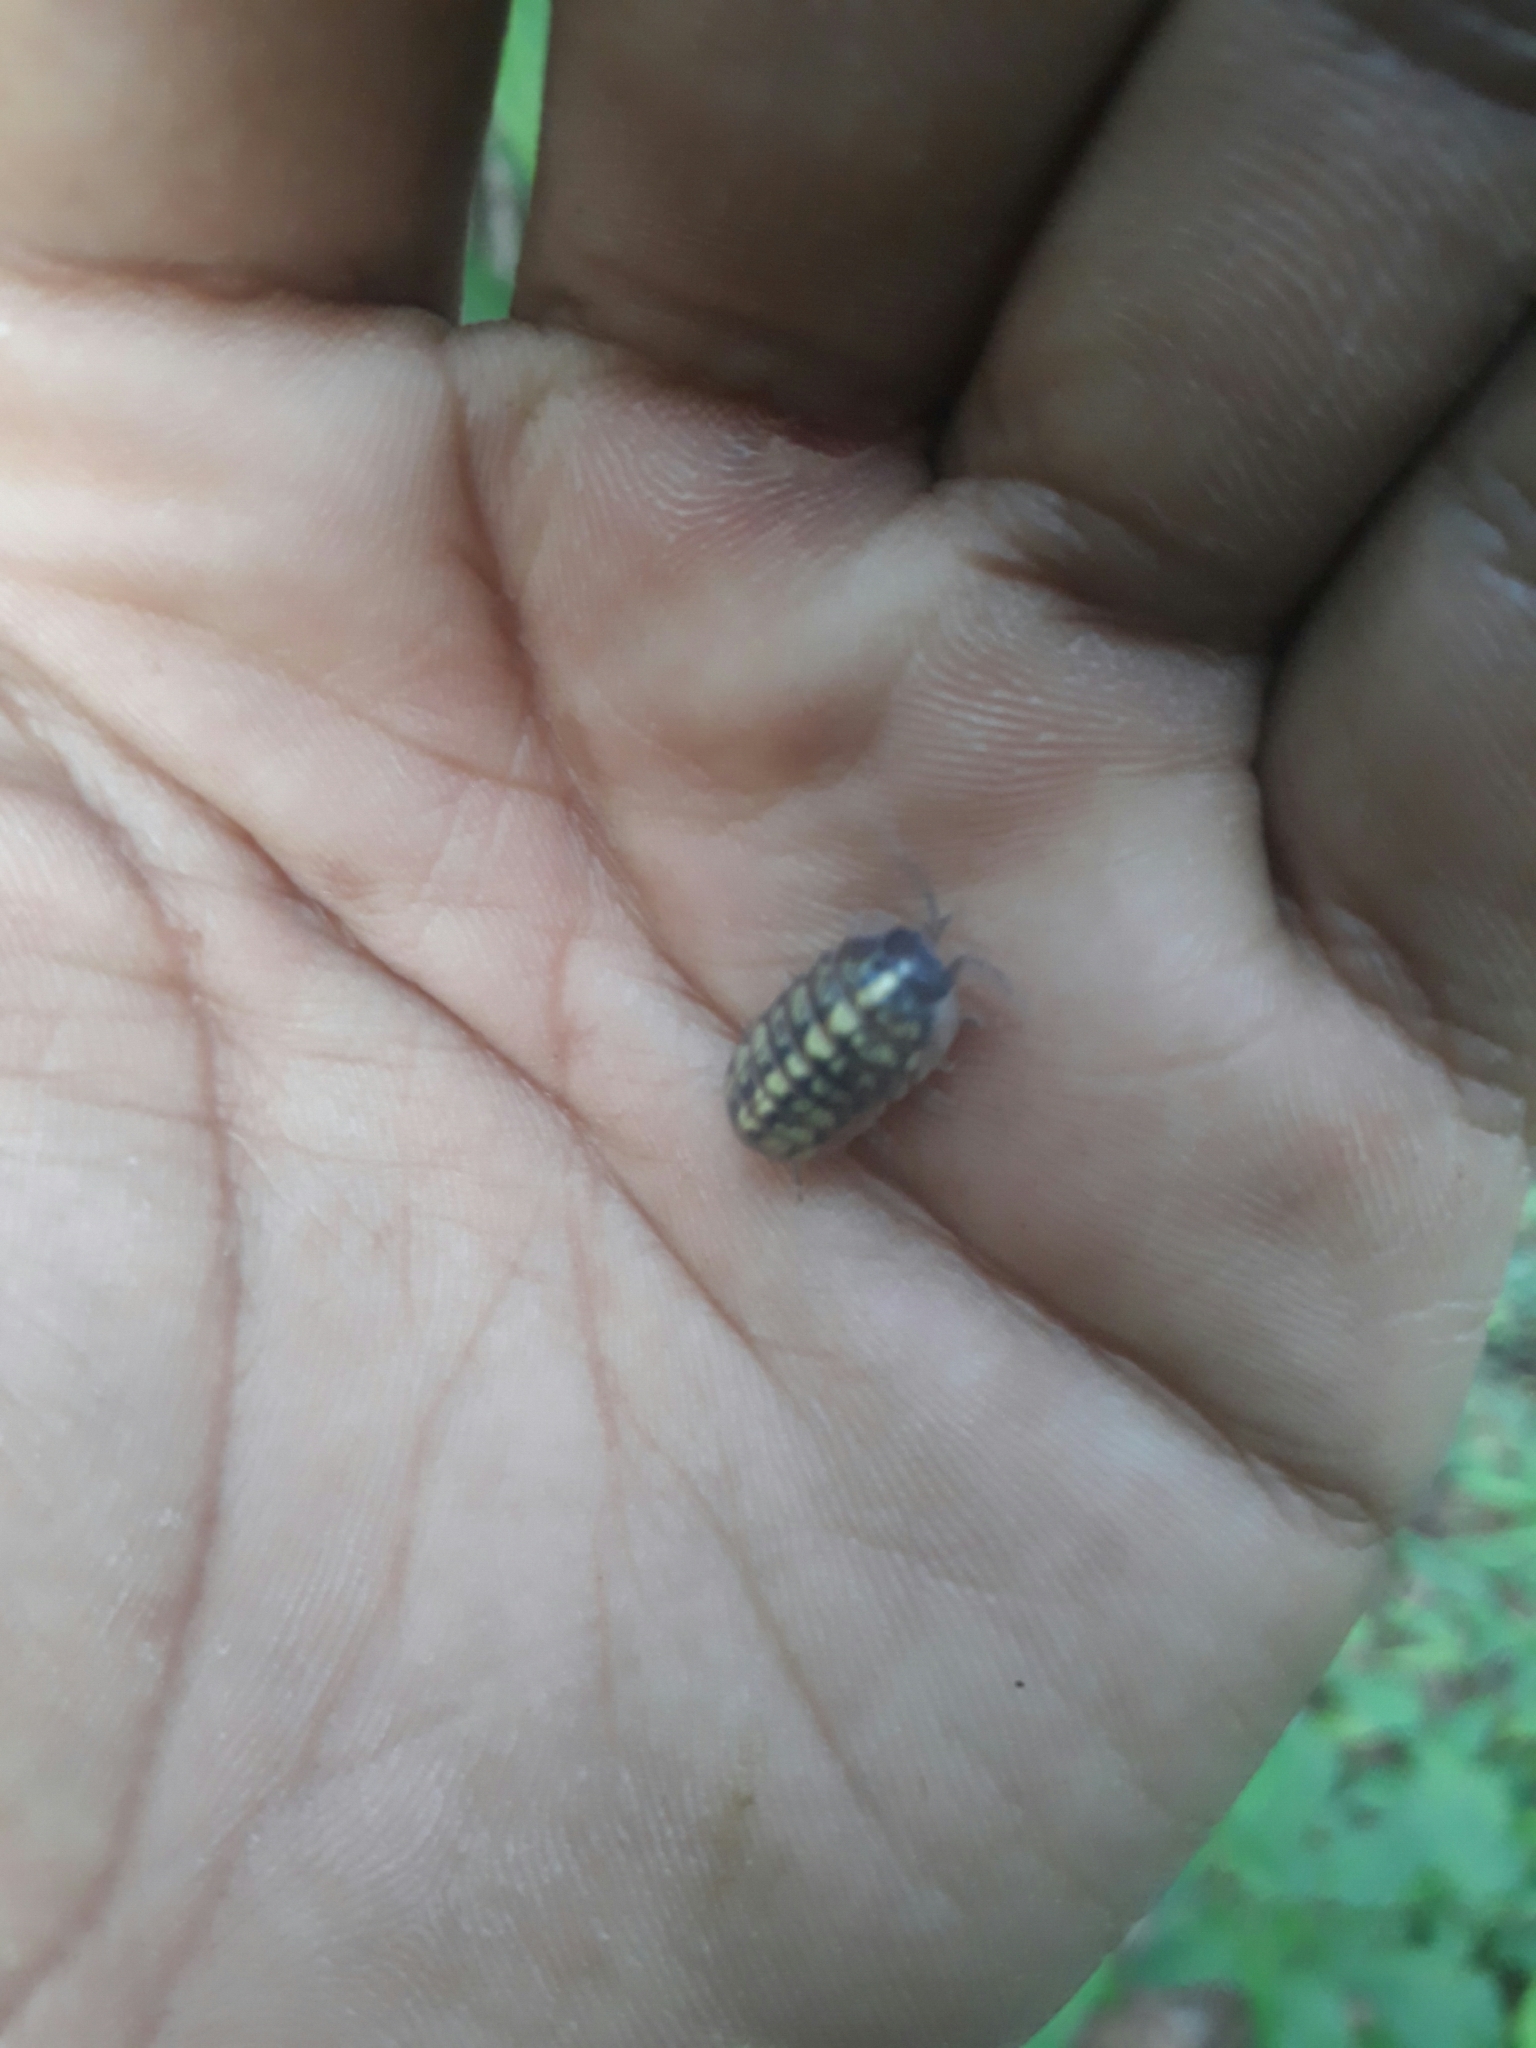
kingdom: Animalia
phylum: Arthropoda
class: Malacostraca
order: Isopoda
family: Armadillidiidae
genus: Armadillidium
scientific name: Armadillidium vulgare
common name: Common pill woodlouse
